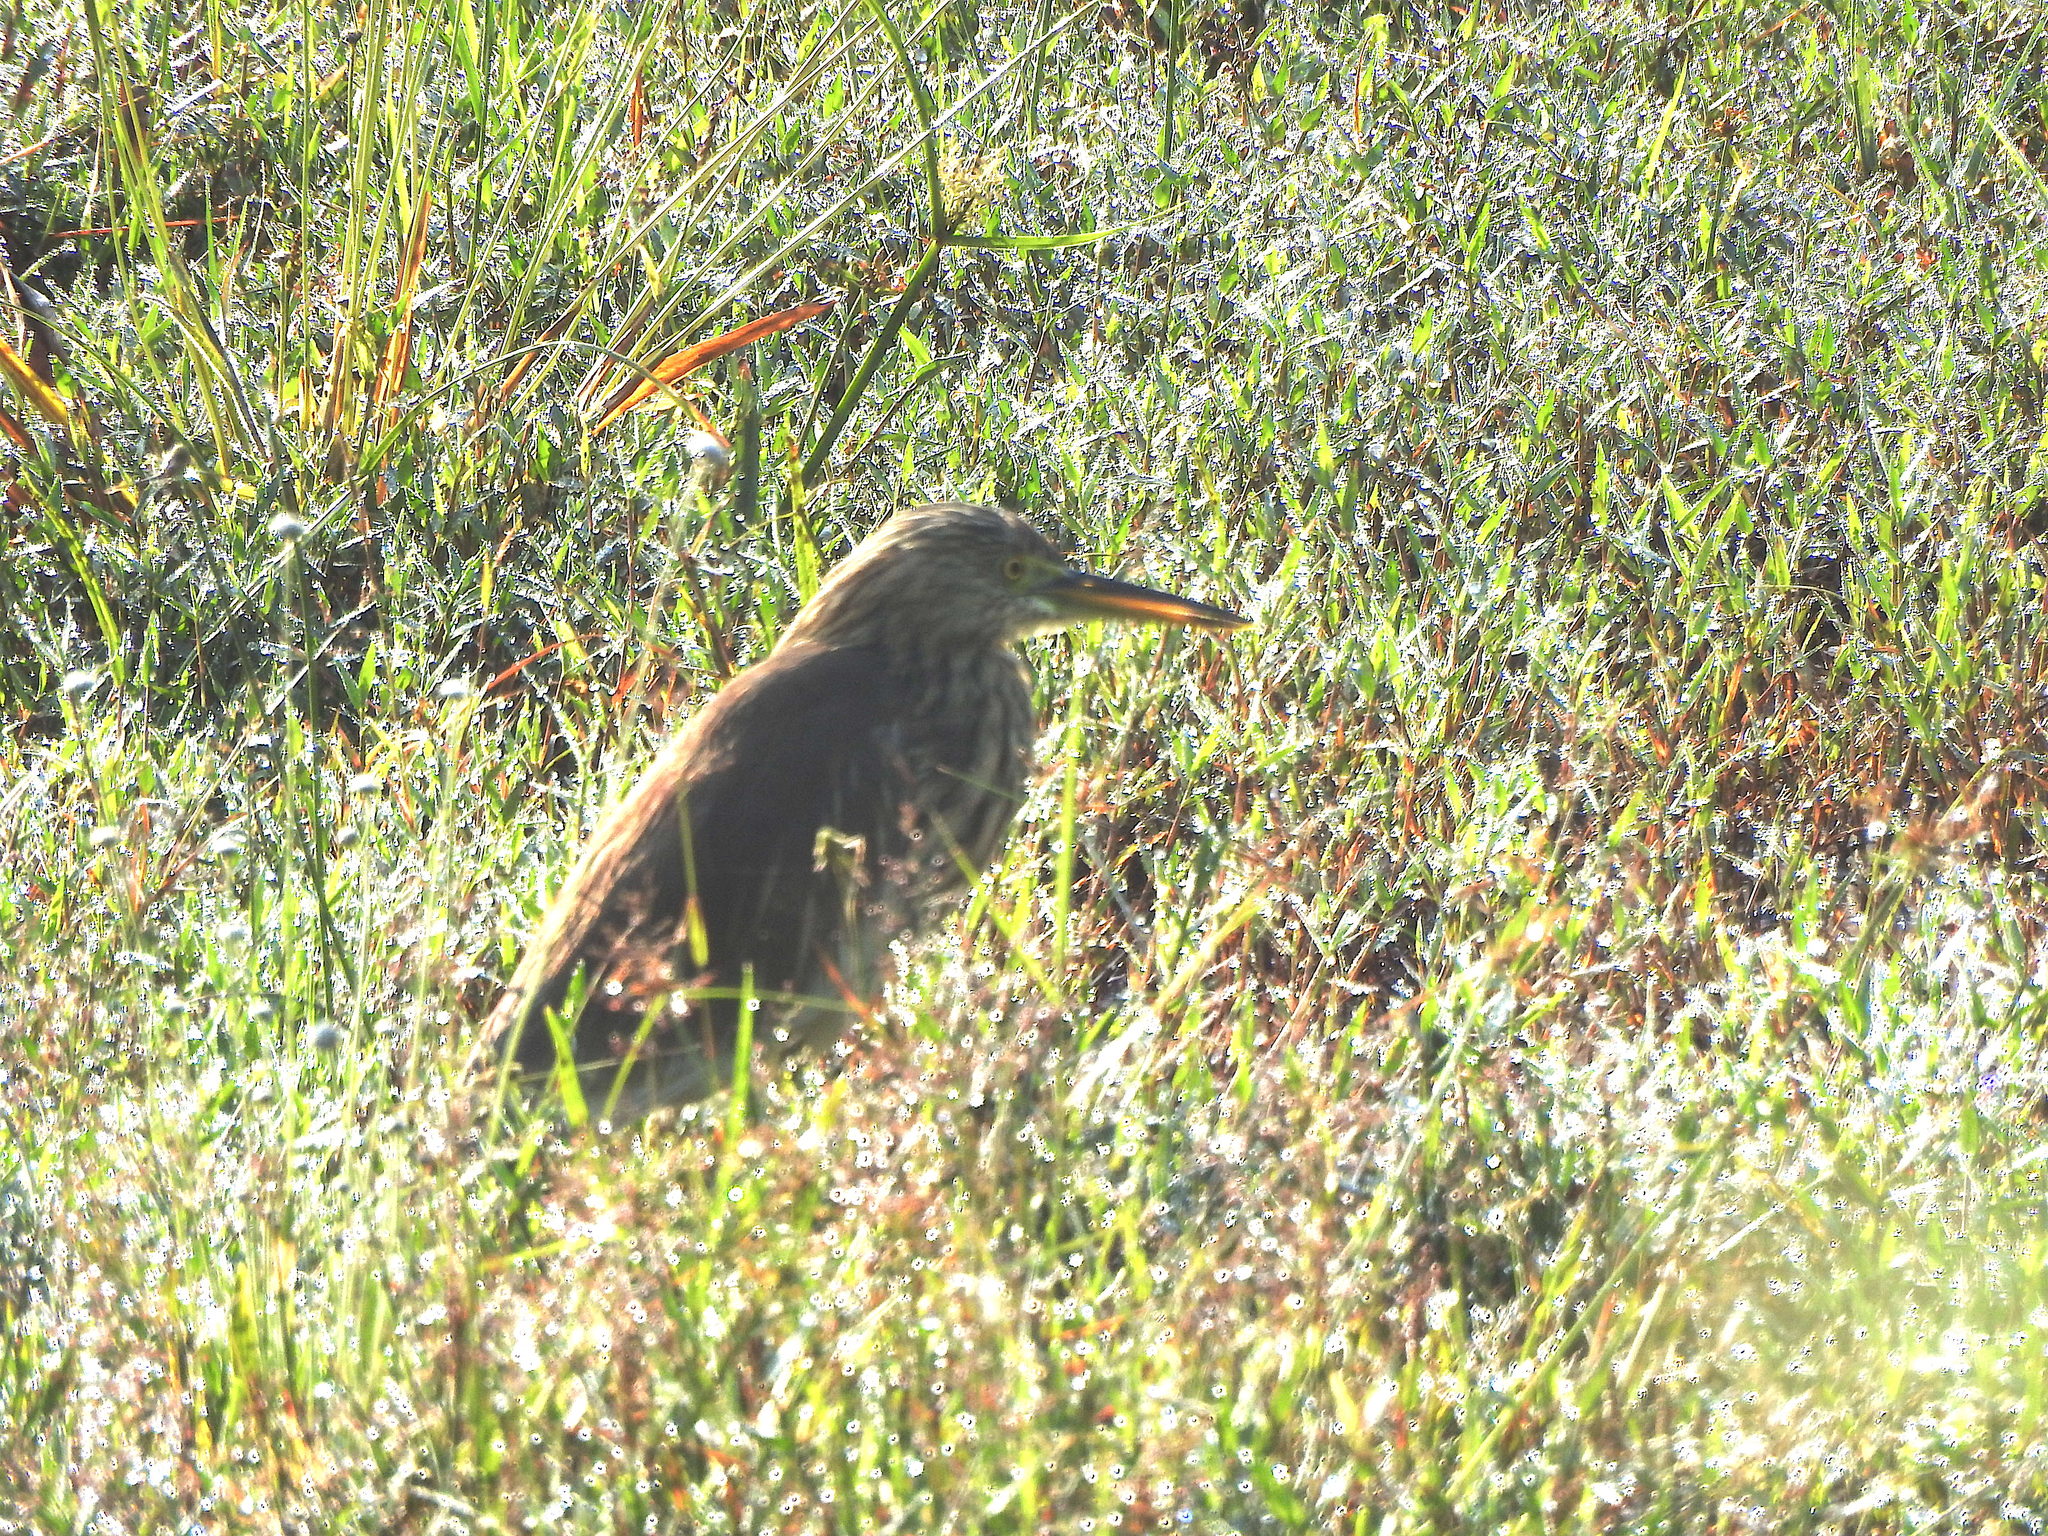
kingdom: Animalia
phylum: Chordata
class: Aves
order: Pelecaniformes
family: Ardeidae
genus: Ardeola
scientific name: Ardeola grayii
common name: Indian pond heron
